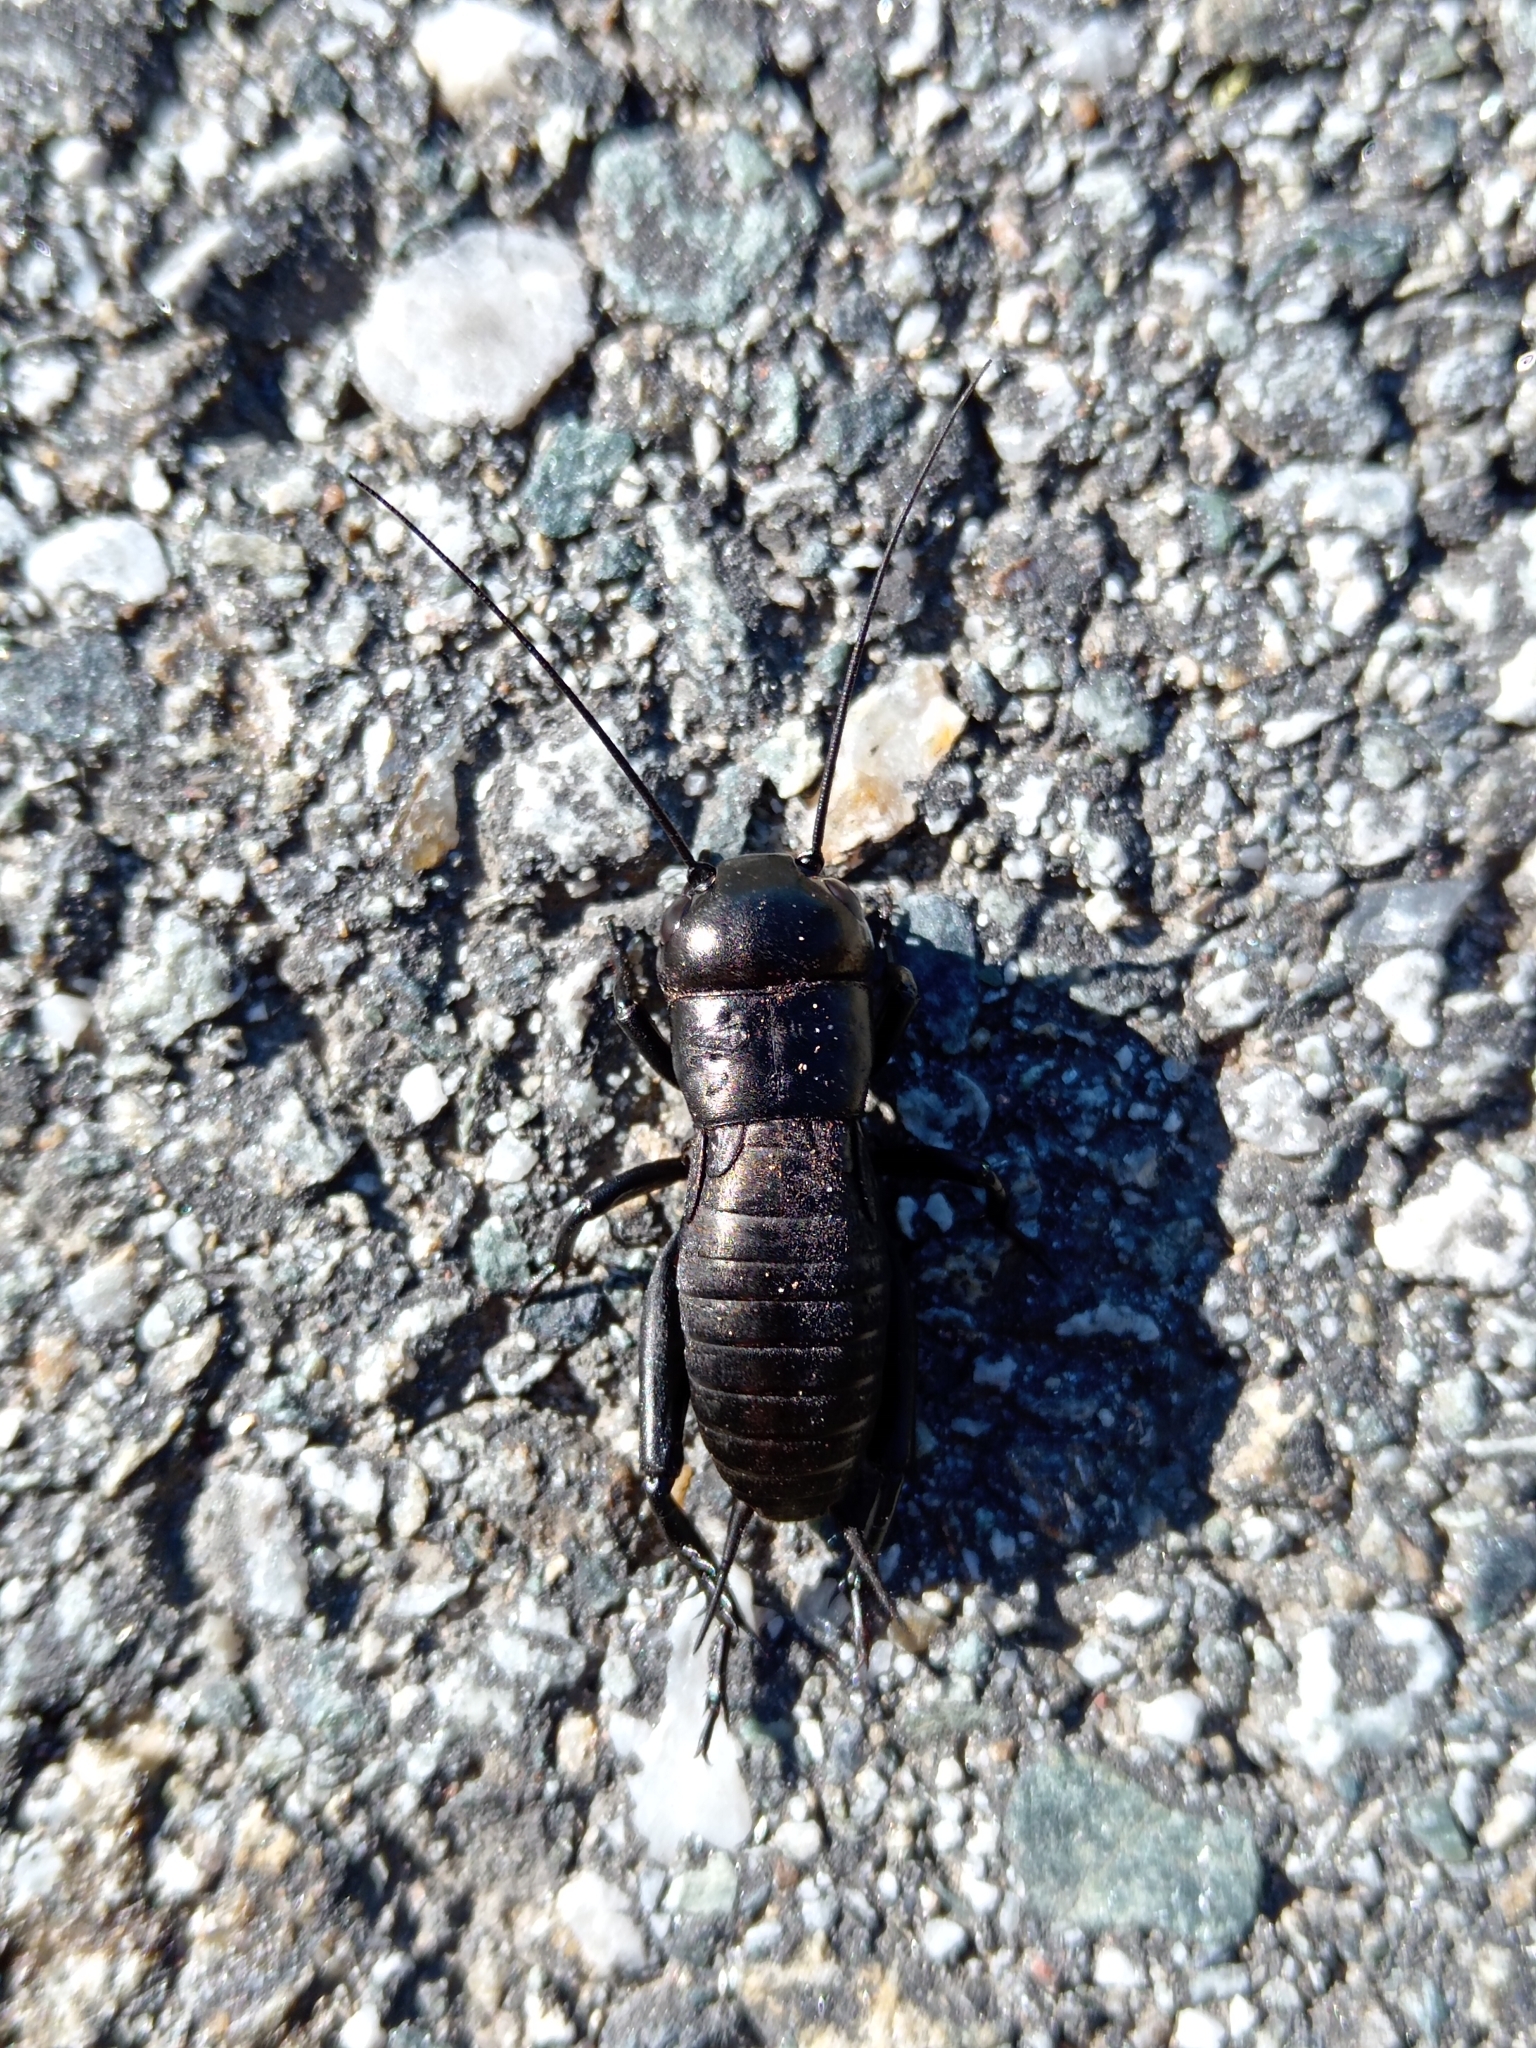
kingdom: Animalia
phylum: Arthropoda
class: Insecta
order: Orthoptera
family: Gryllidae
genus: Gryllus
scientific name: Gryllus campestris
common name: Field cricket
